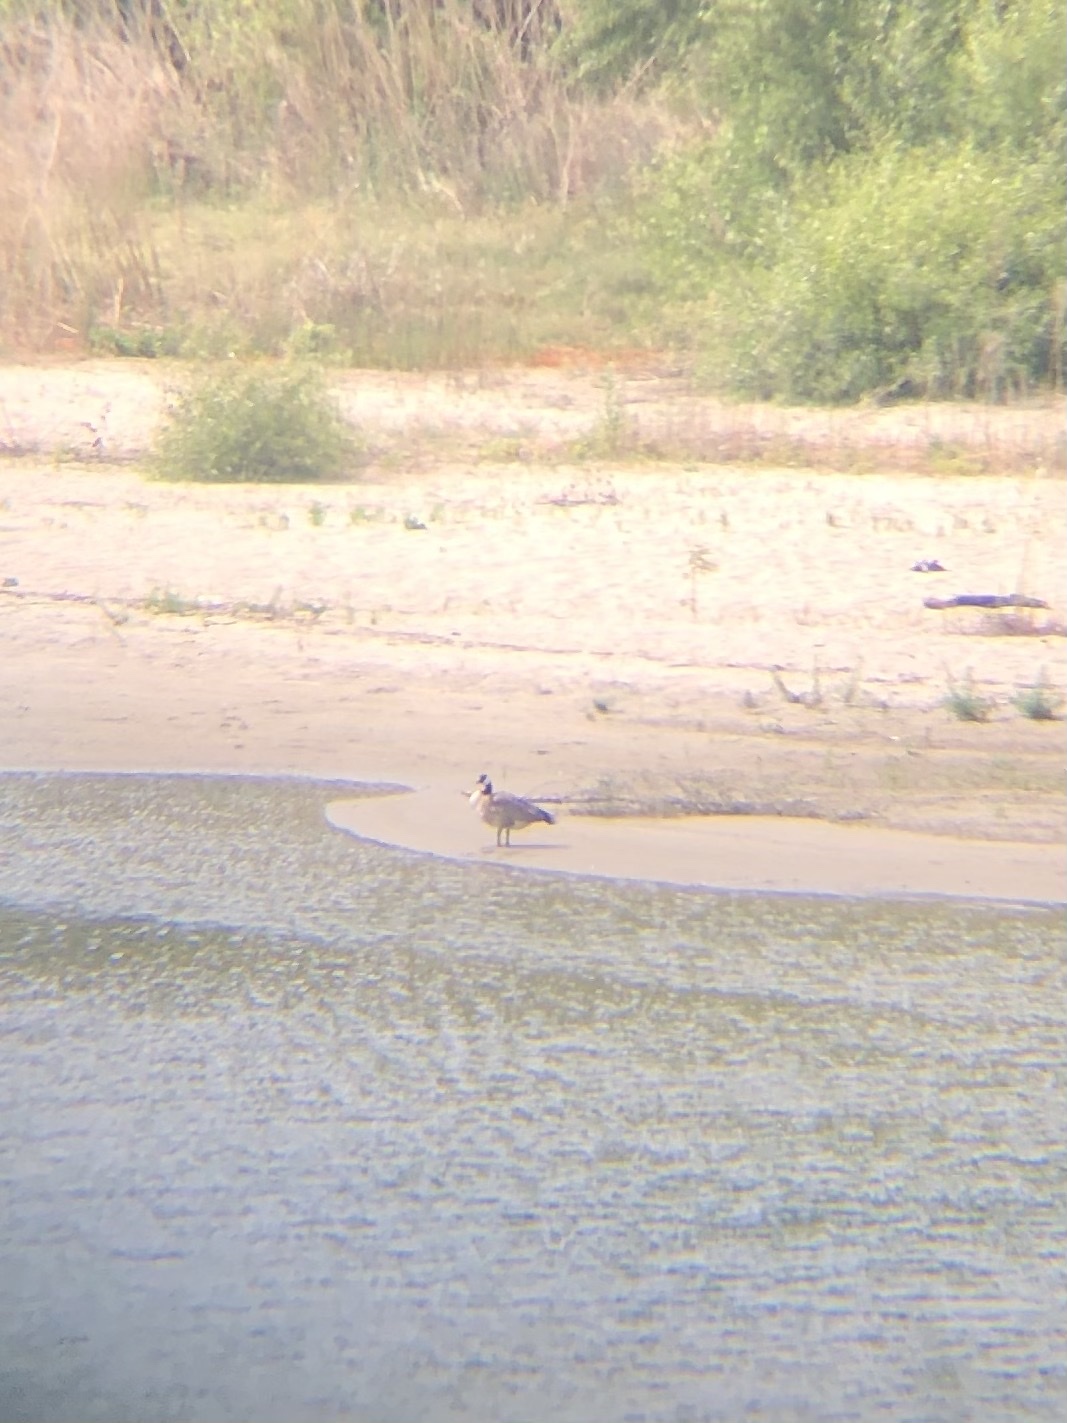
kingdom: Animalia
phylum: Chordata
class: Aves
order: Anseriformes
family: Anatidae
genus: Branta
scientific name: Branta canadensis
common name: Canada goose
